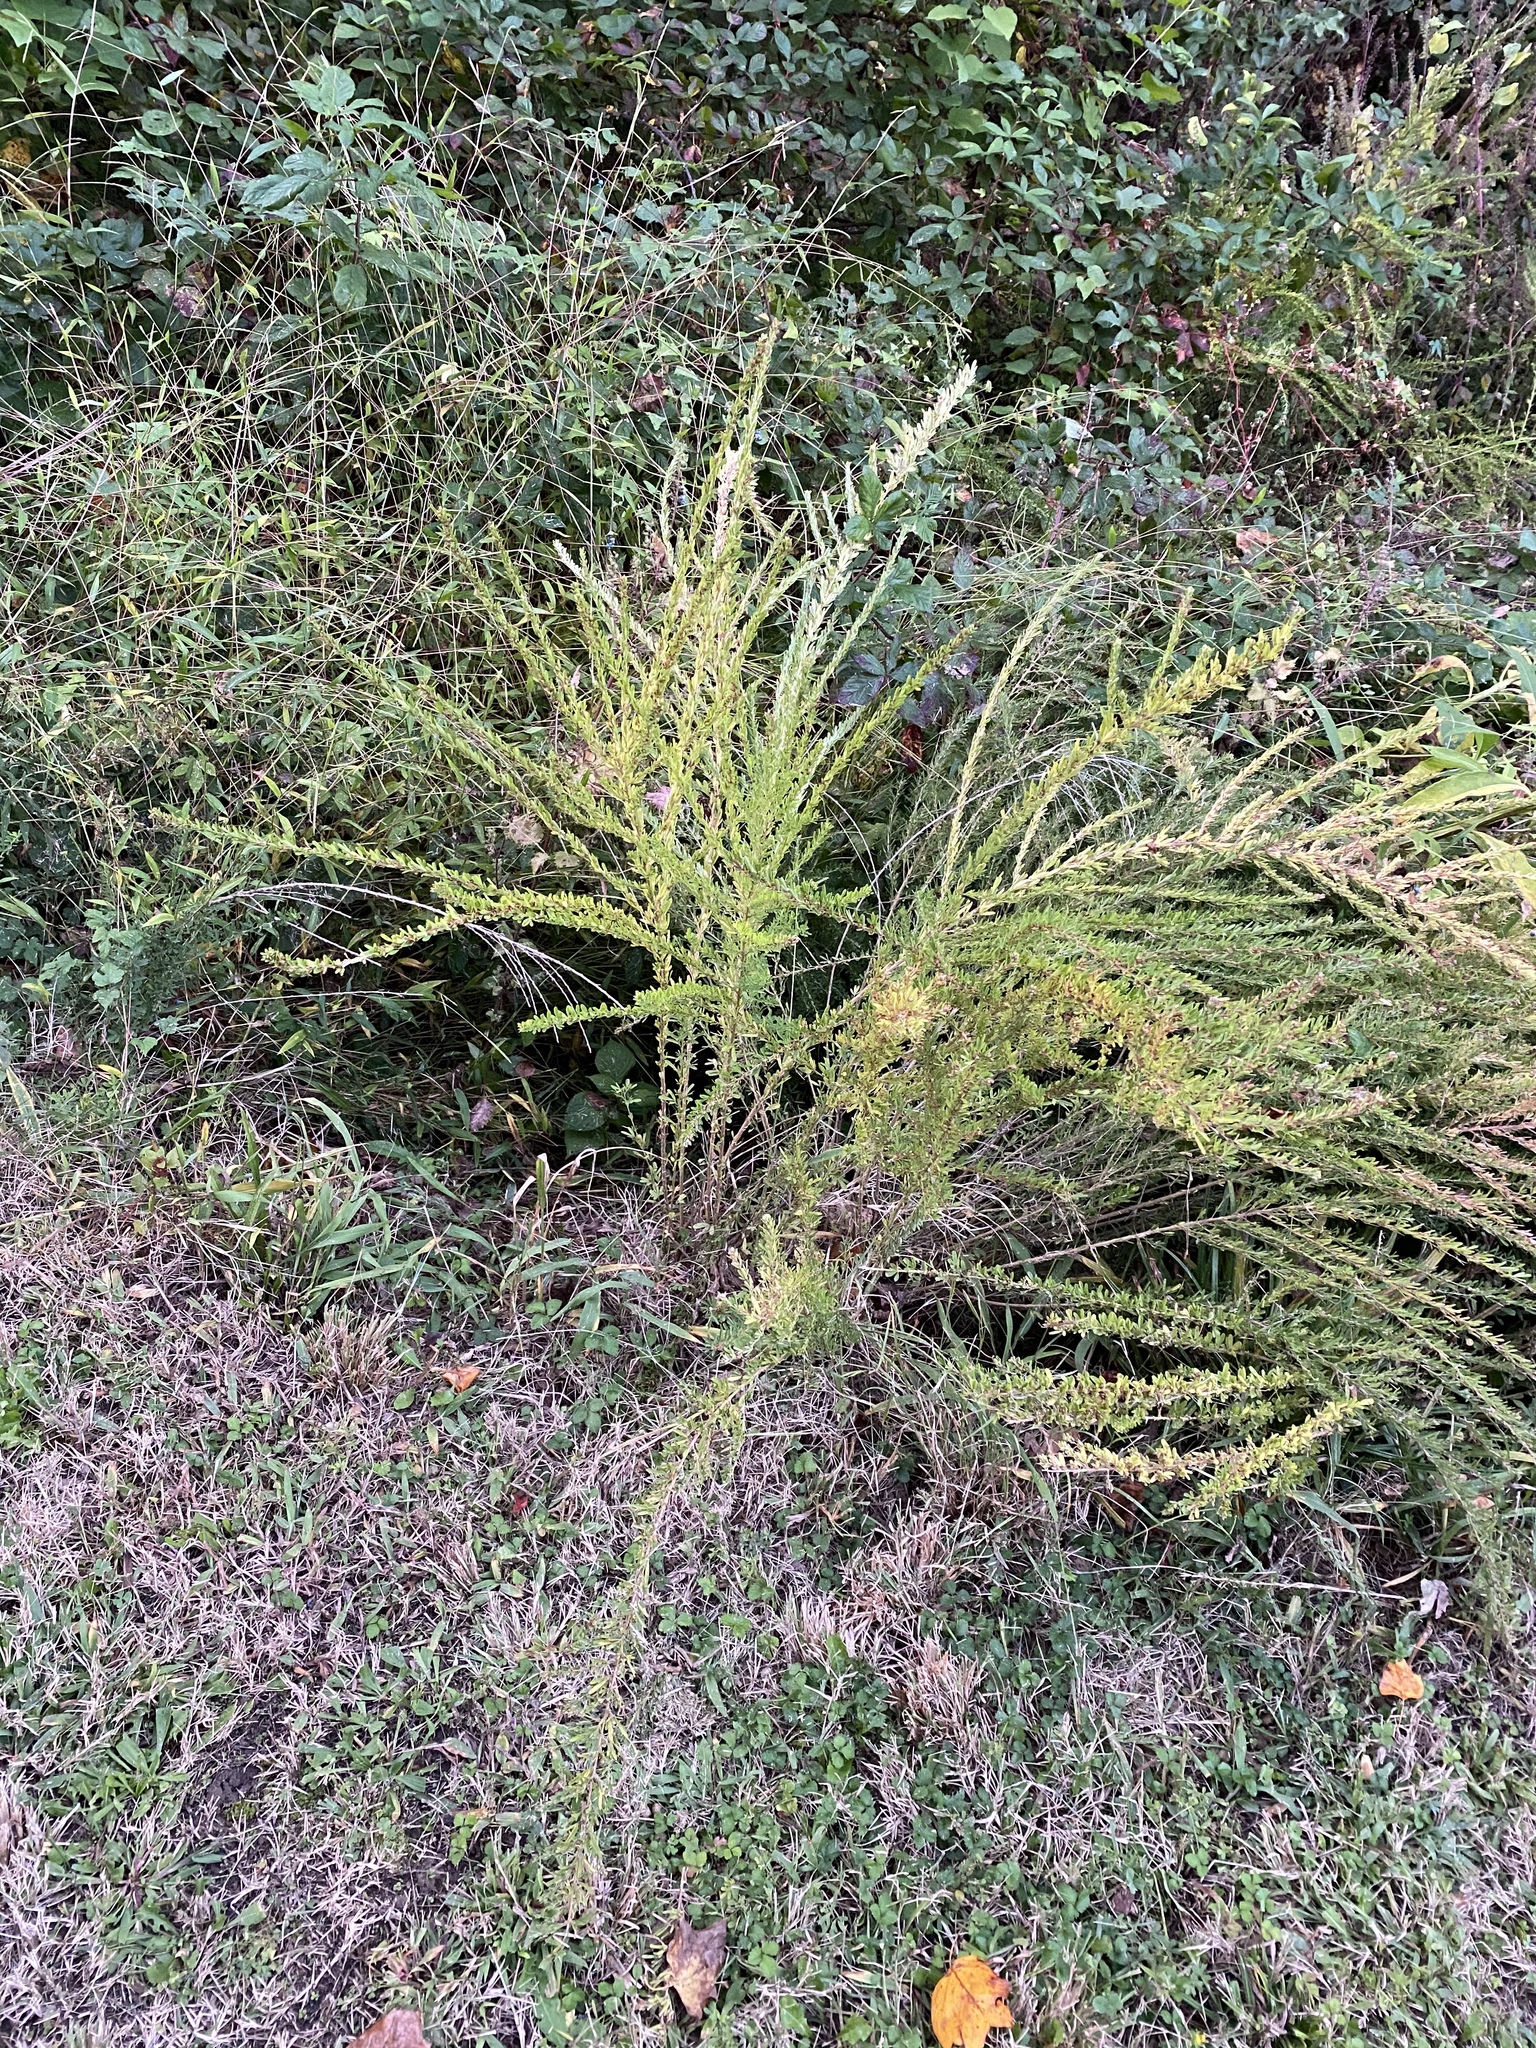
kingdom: Plantae
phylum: Tracheophyta
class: Magnoliopsida
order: Fabales
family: Fabaceae
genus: Lespedeza
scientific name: Lespedeza cuneata
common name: Chinese bush-clover
